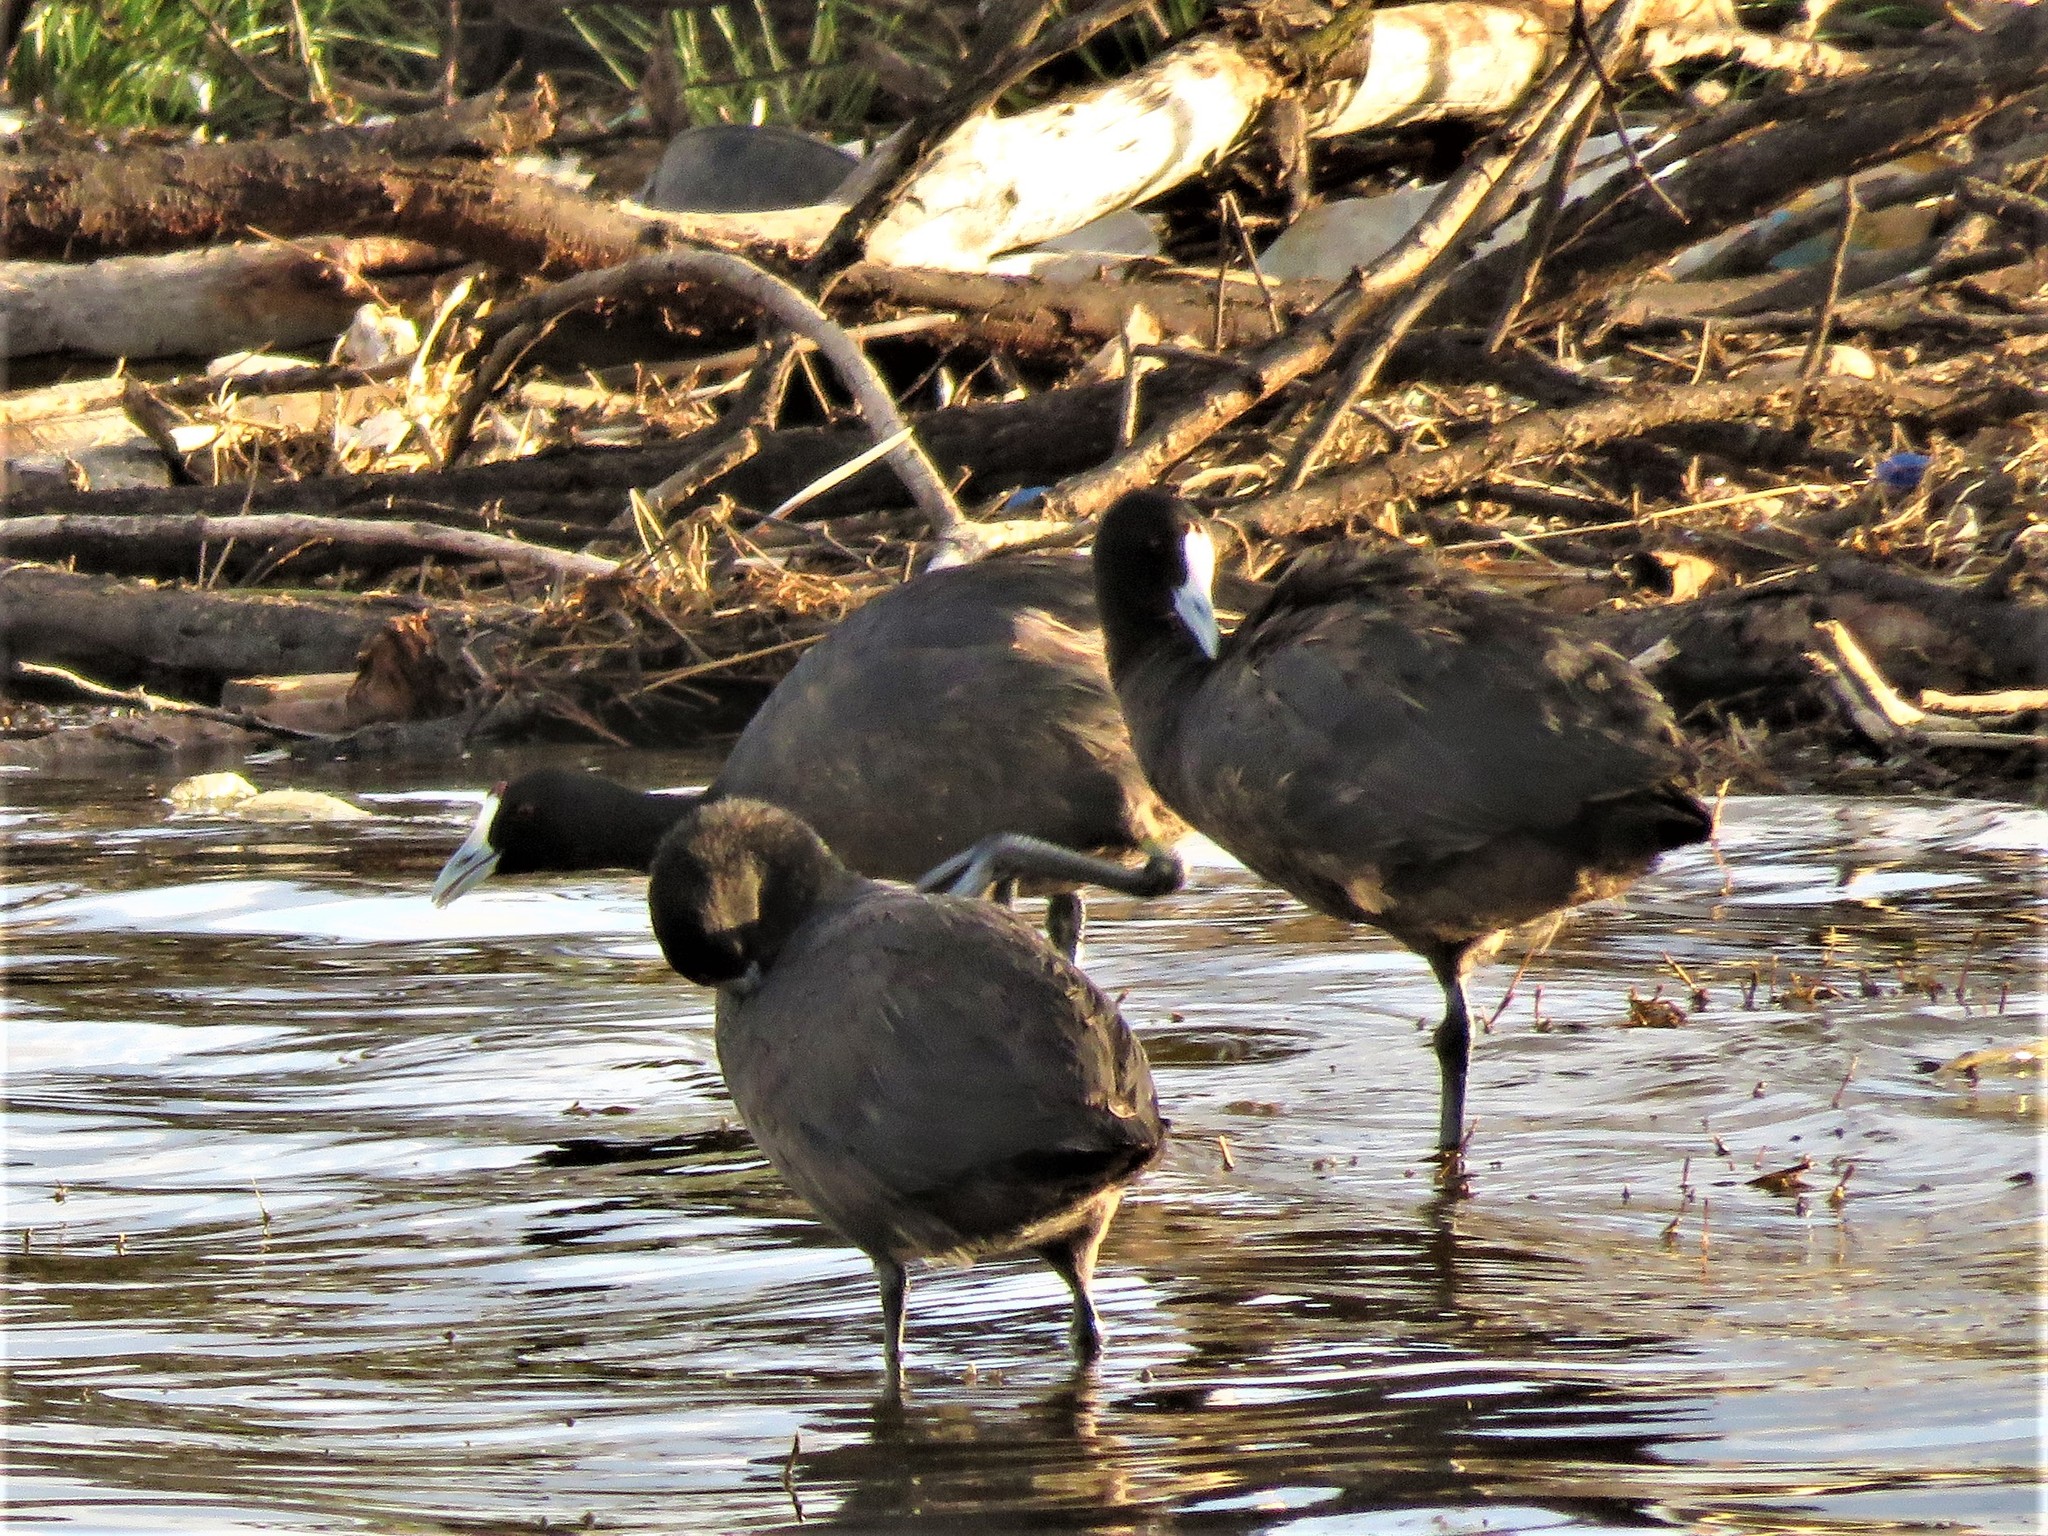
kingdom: Animalia
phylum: Chordata
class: Aves
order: Gruiformes
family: Rallidae
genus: Fulica
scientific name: Fulica cristata
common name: Red-knobbed coot
